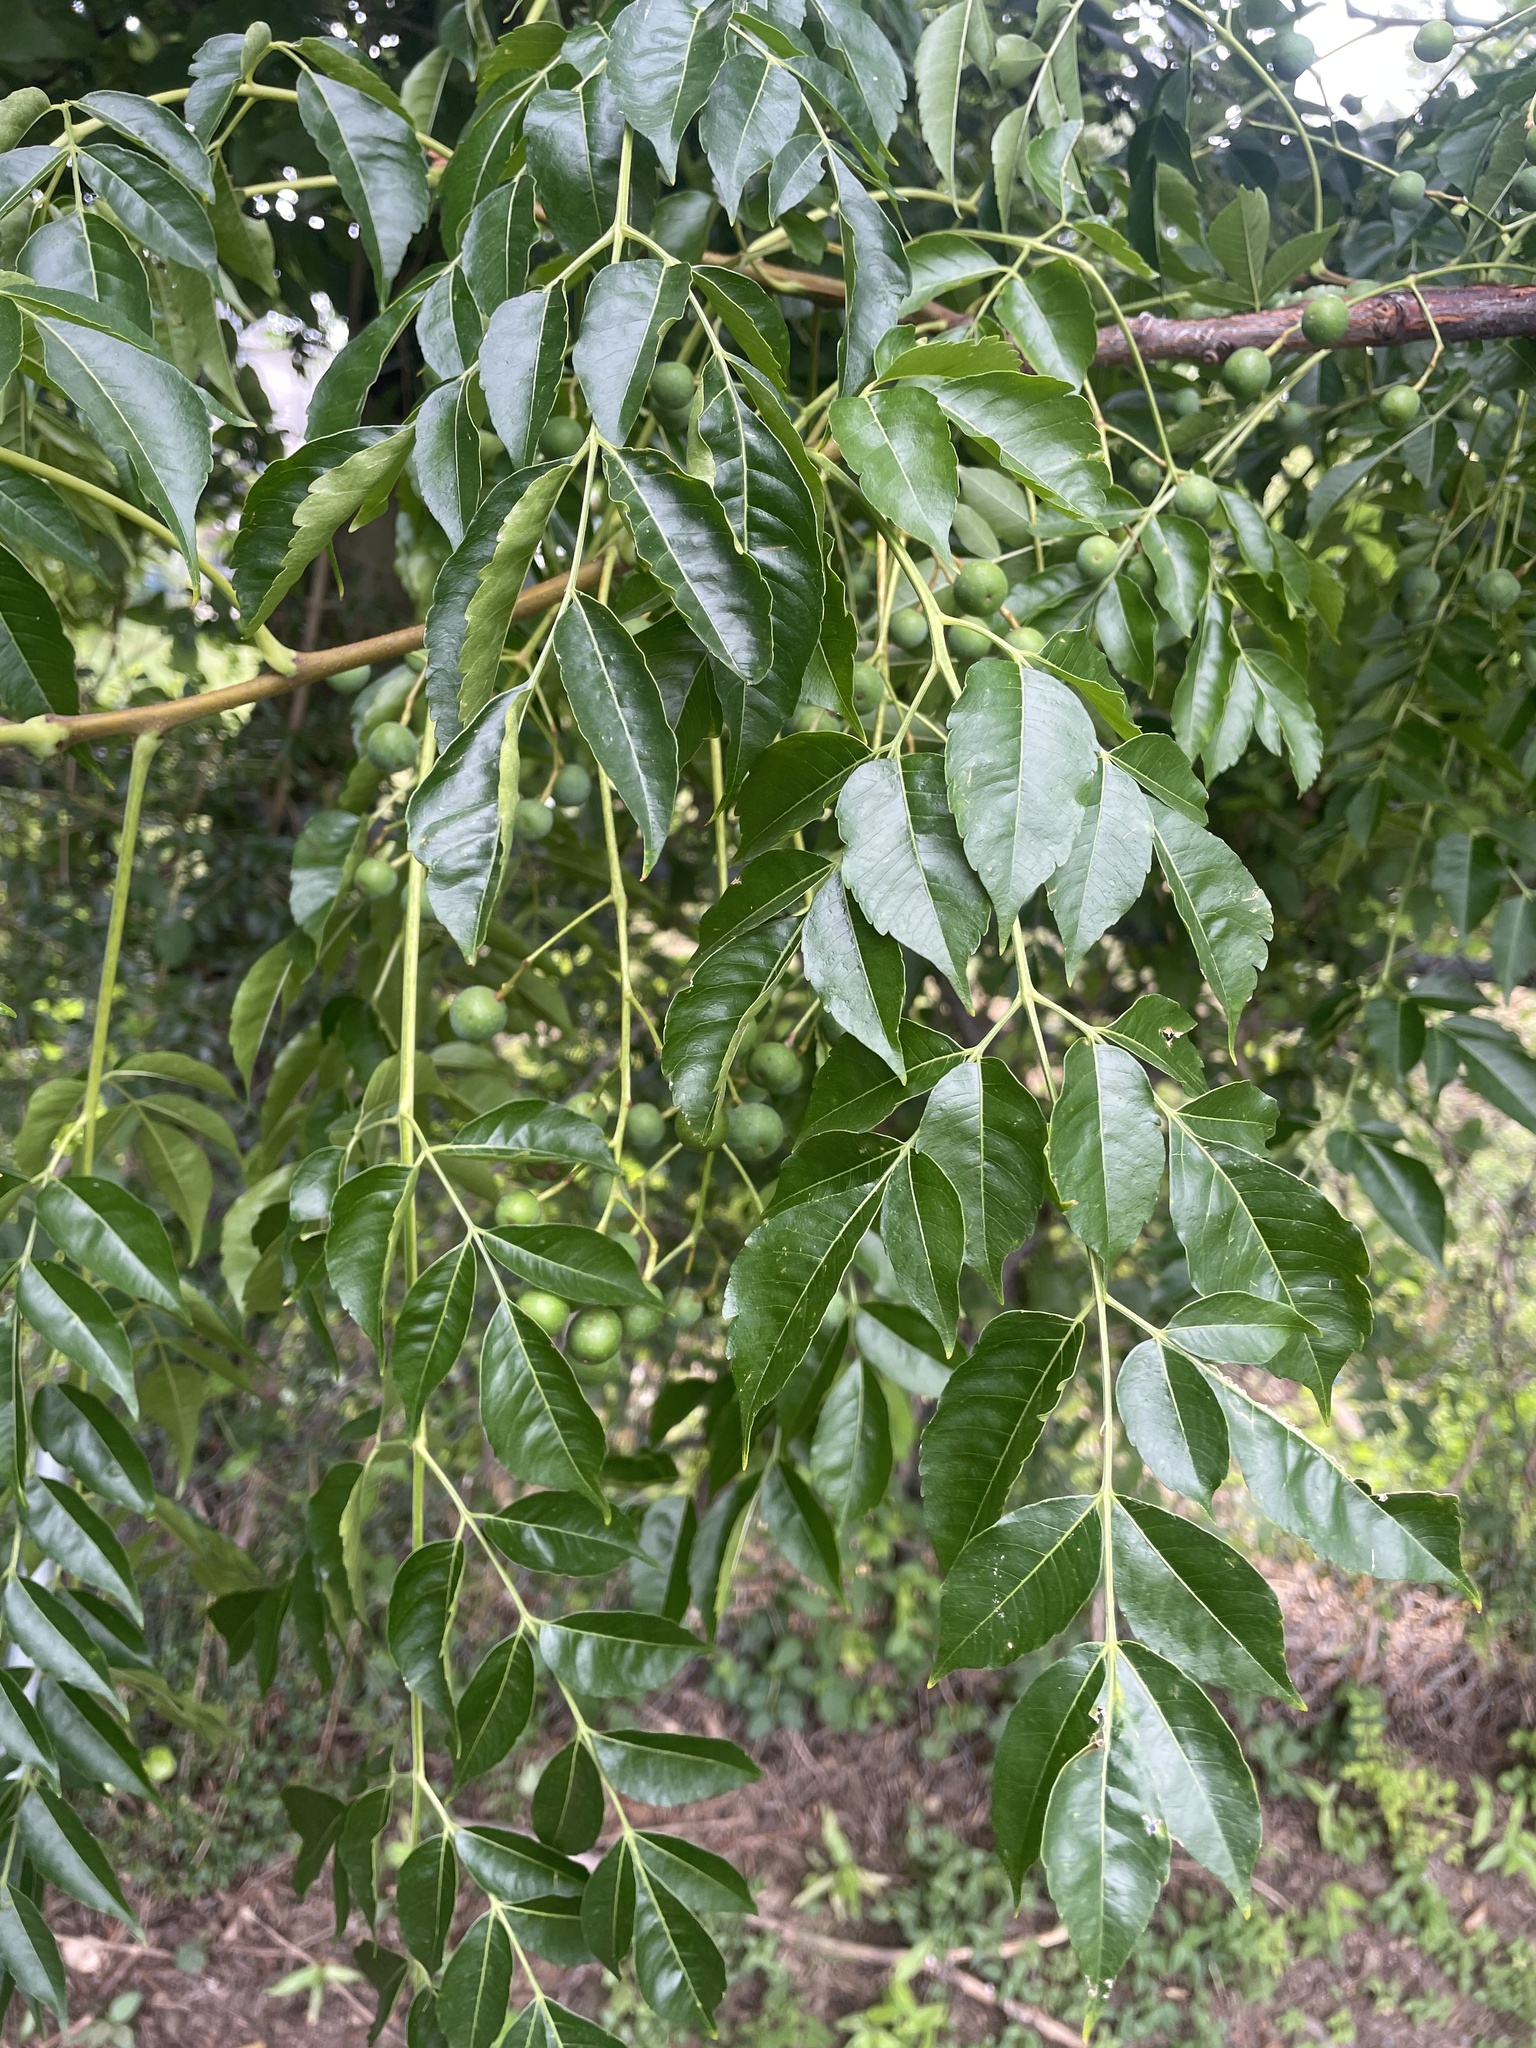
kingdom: Plantae
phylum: Tracheophyta
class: Magnoliopsida
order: Sapindales
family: Meliaceae
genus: Melia
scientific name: Melia azedarach
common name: Chinaberrytree
